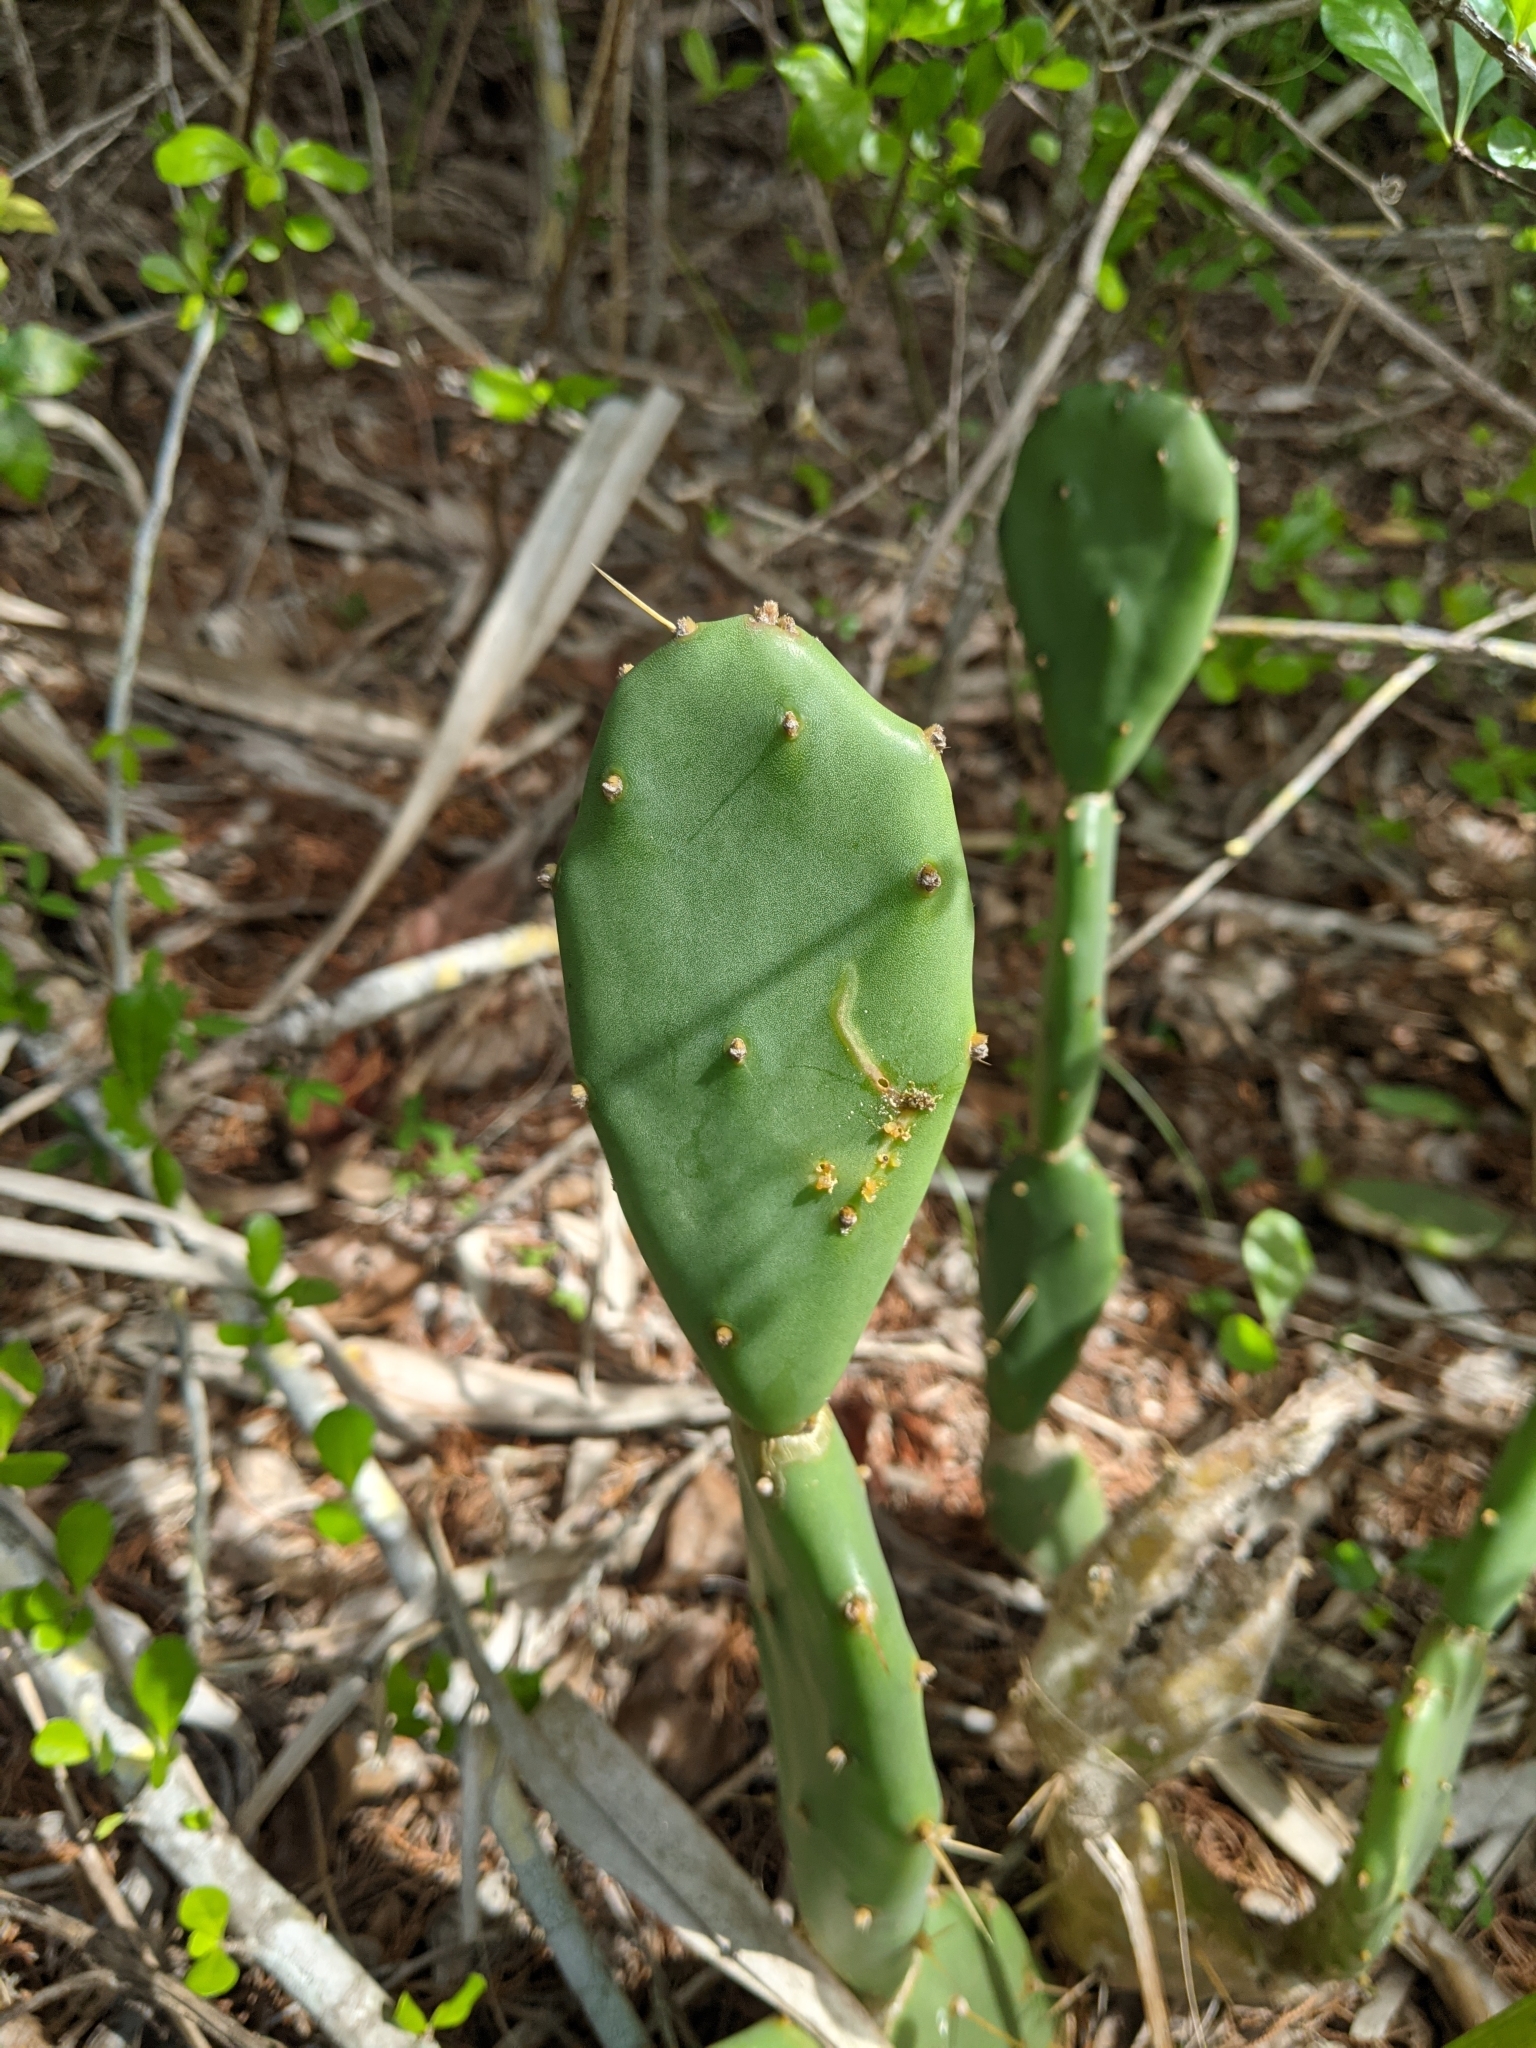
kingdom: Plantae
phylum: Tracheophyta
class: Magnoliopsida
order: Caryophyllales
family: Cactaceae
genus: Opuntia
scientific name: Opuntia stricta
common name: Erect pricklypear
